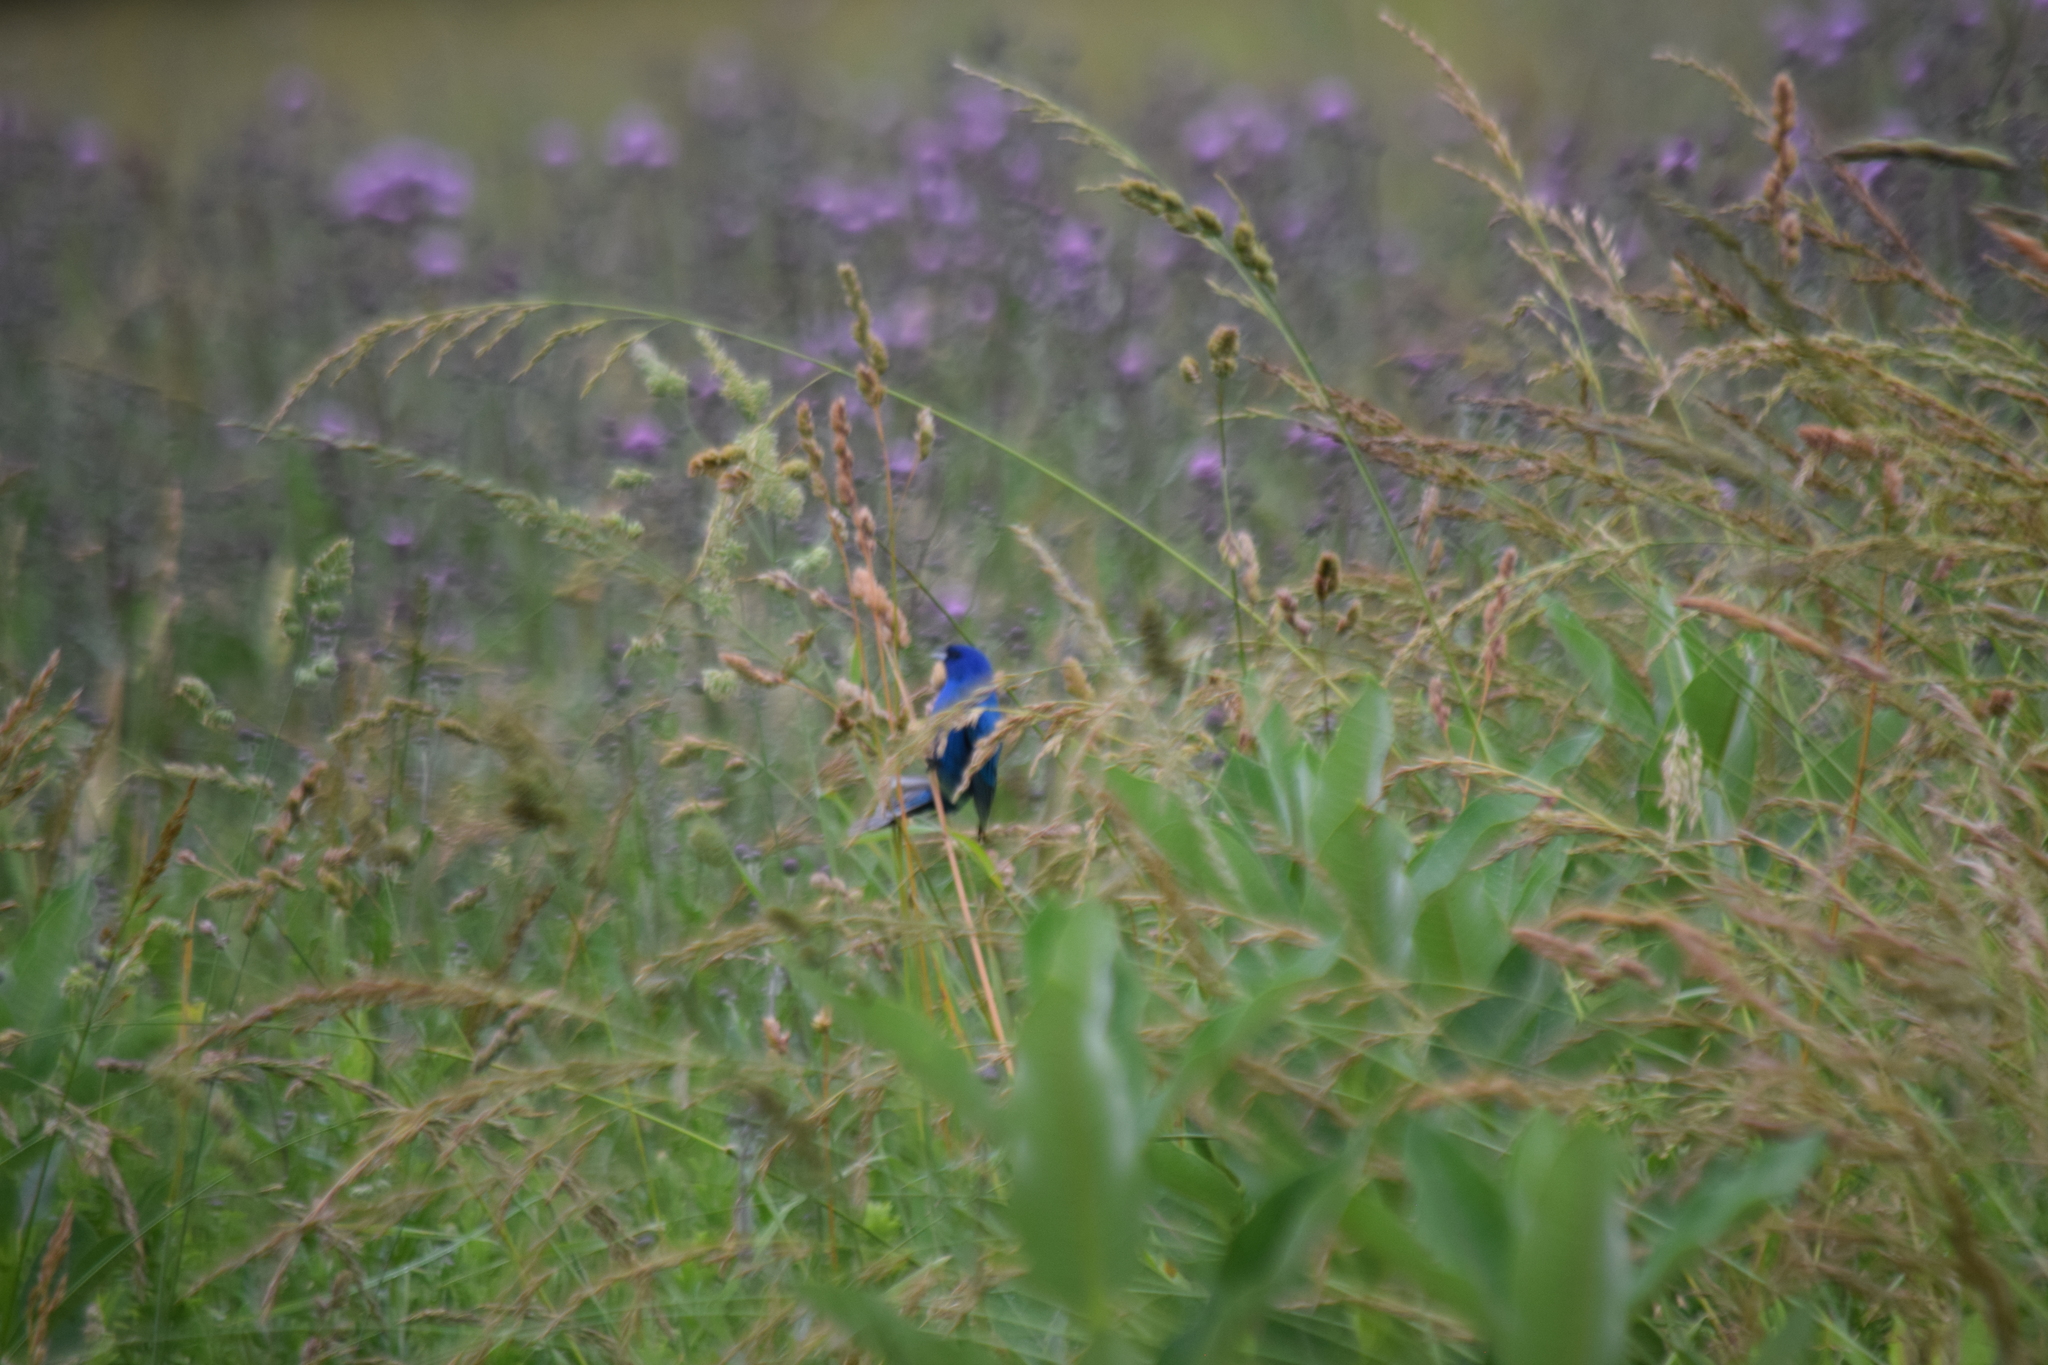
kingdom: Animalia
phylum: Chordata
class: Aves
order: Passeriformes
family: Cardinalidae
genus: Passerina
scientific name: Passerina cyanea
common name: Indigo bunting
